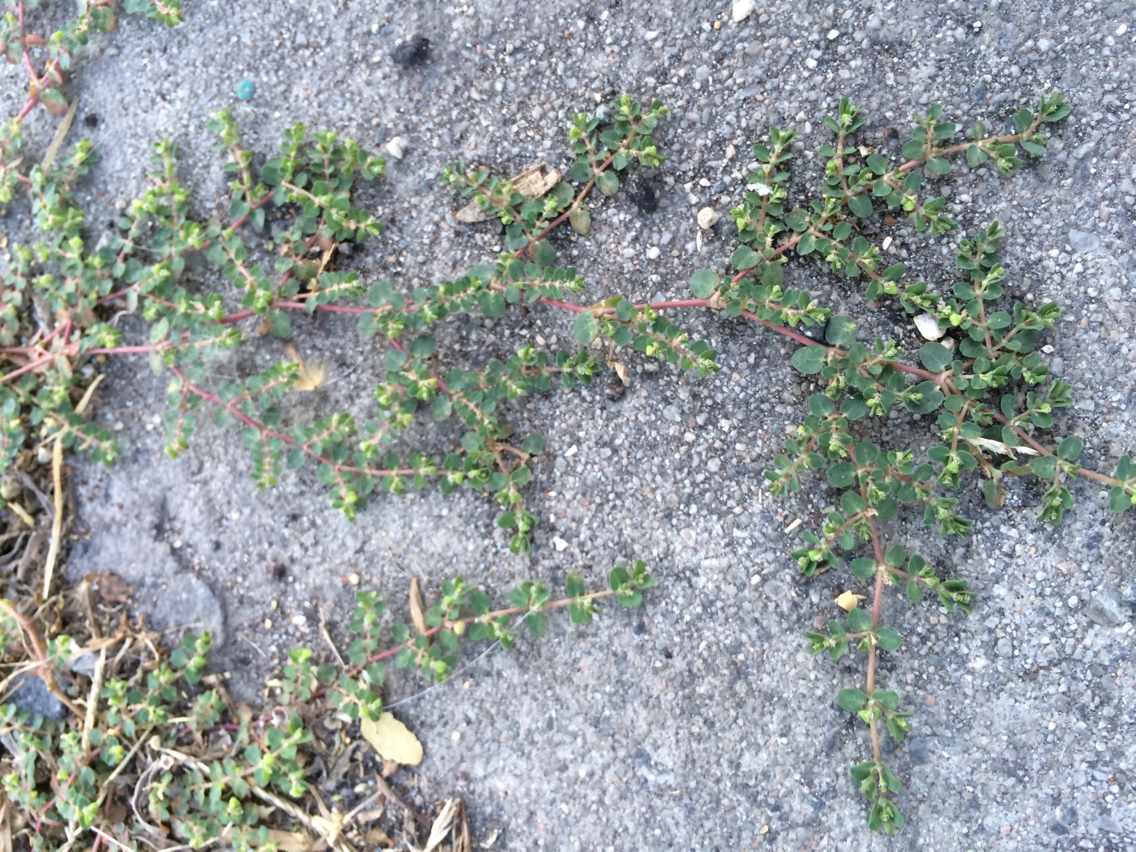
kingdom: Plantae
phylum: Tracheophyta
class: Magnoliopsida
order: Malpighiales
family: Euphorbiaceae
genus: Euphorbia
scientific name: Euphorbia albomarginata
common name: Whitemargin sandmat
